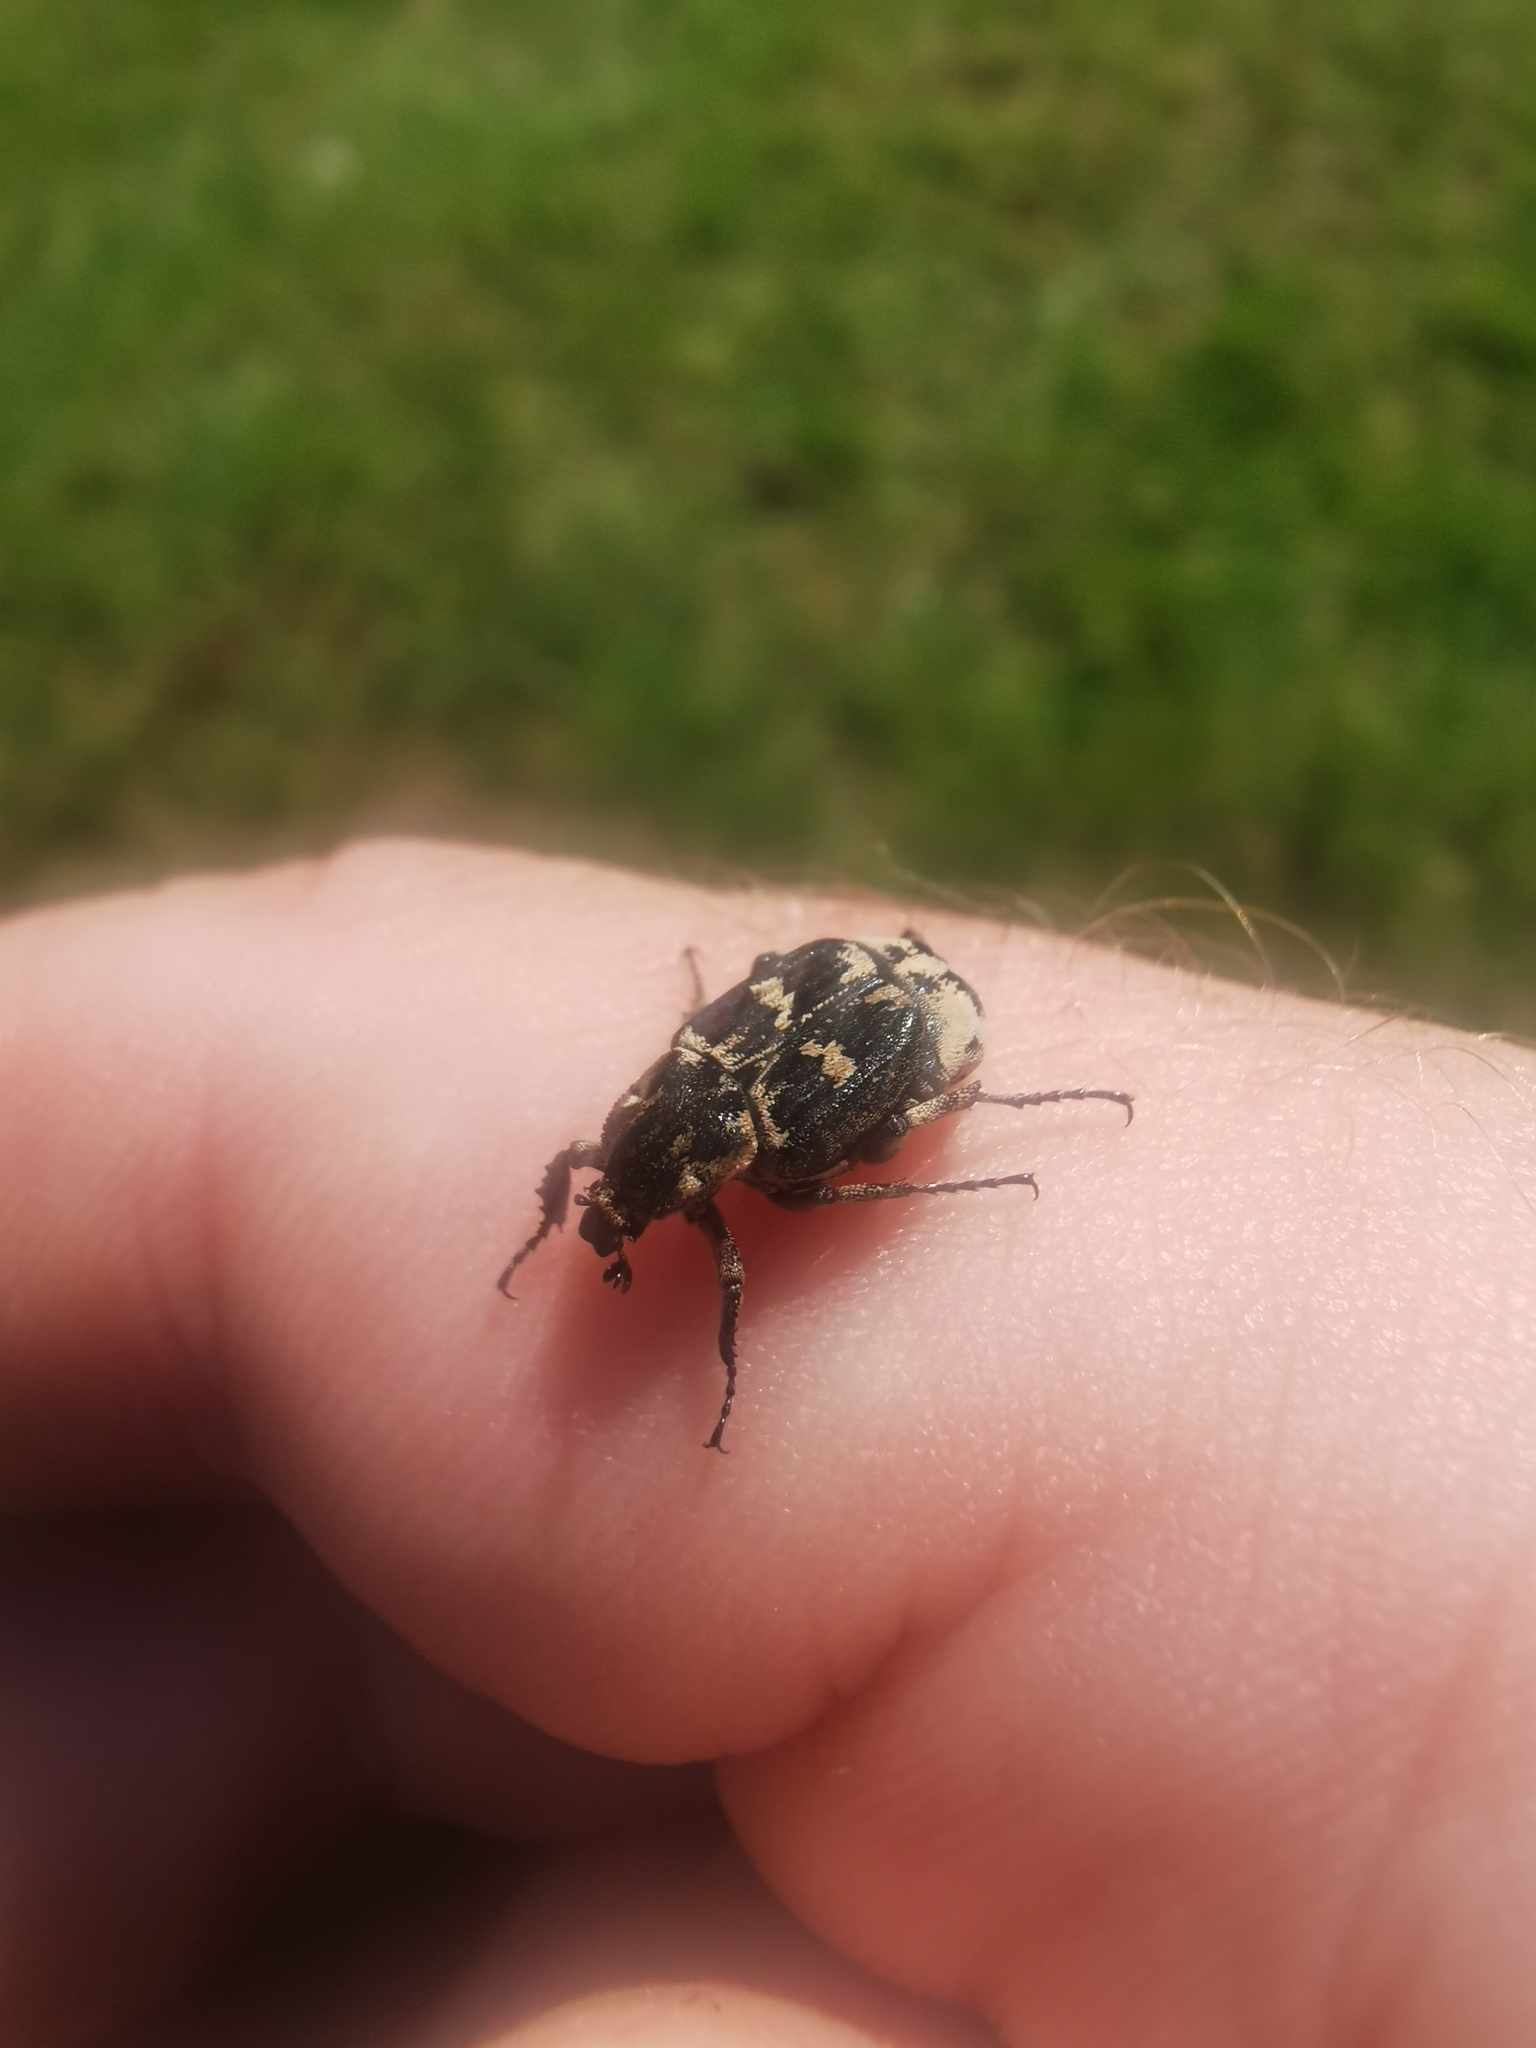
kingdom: Animalia
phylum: Arthropoda
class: Insecta
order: Coleoptera
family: Scarabaeidae
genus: Valgus
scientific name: Valgus hemipterus
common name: Bug flower chafer
